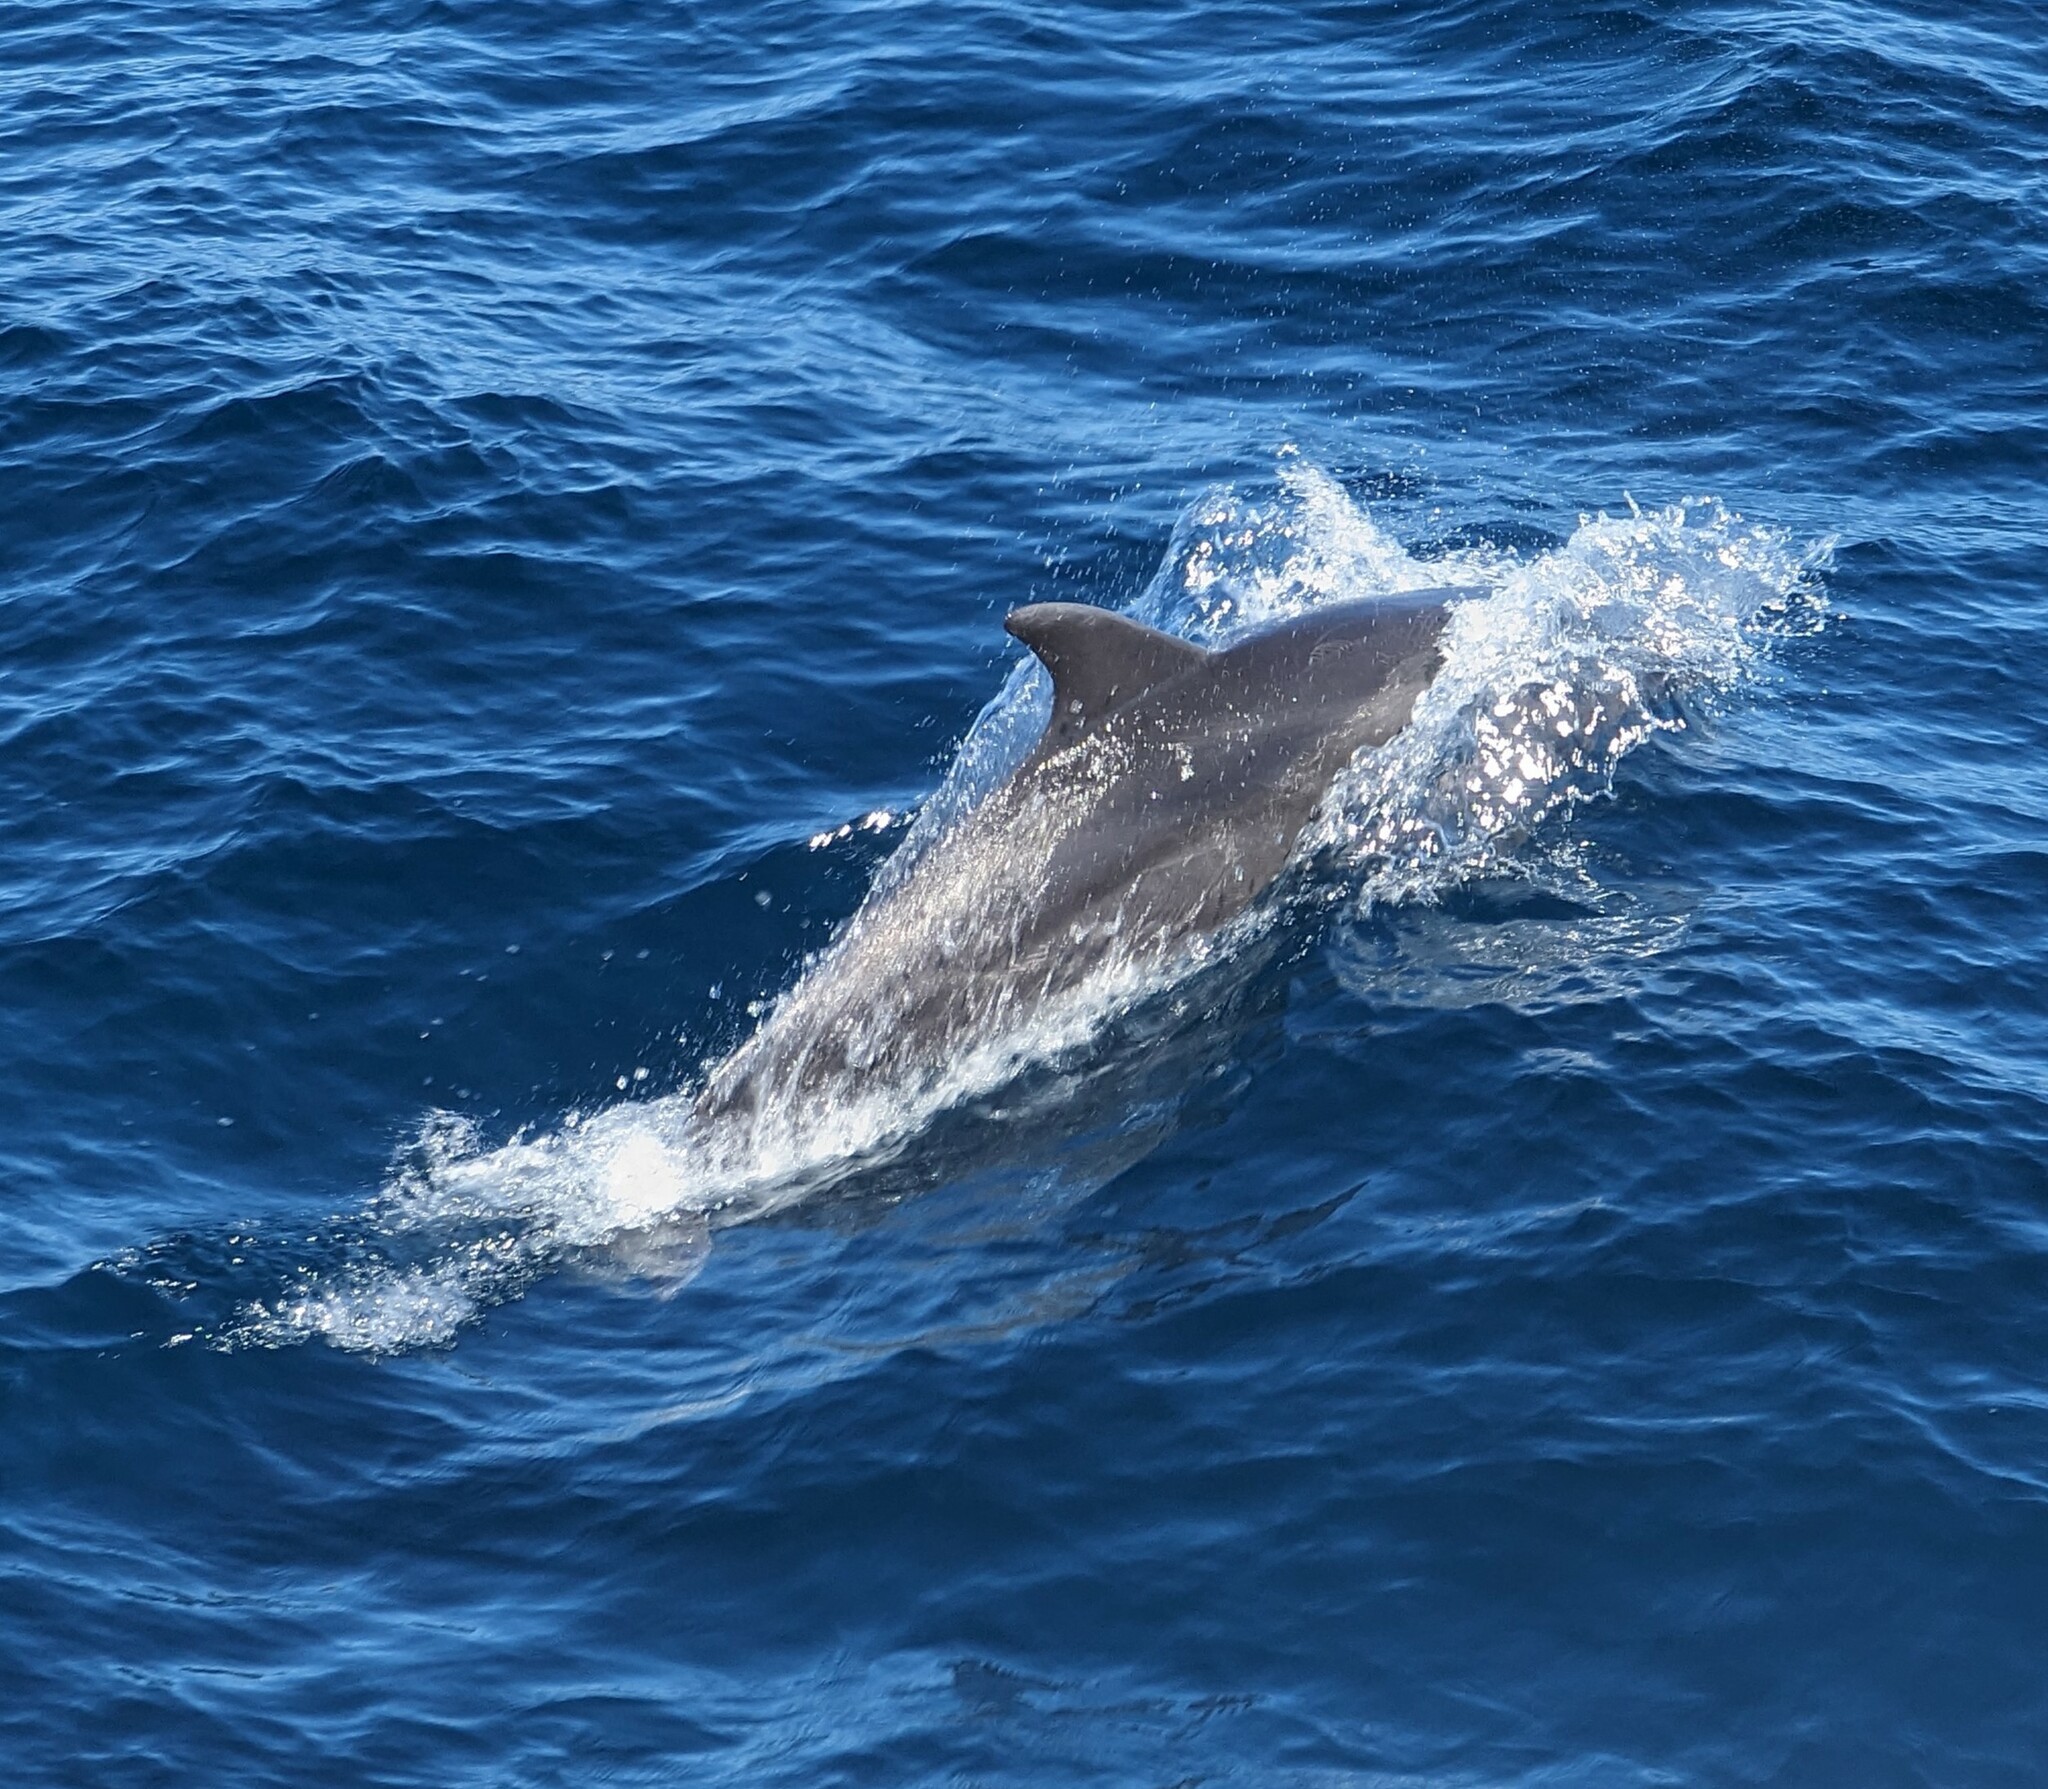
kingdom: Animalia
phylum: Chordata
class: Mammalia
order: Cetacea
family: Delphinidae
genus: Tursiops
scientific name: Tursiops truncatus
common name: Bottlenose dolphin
